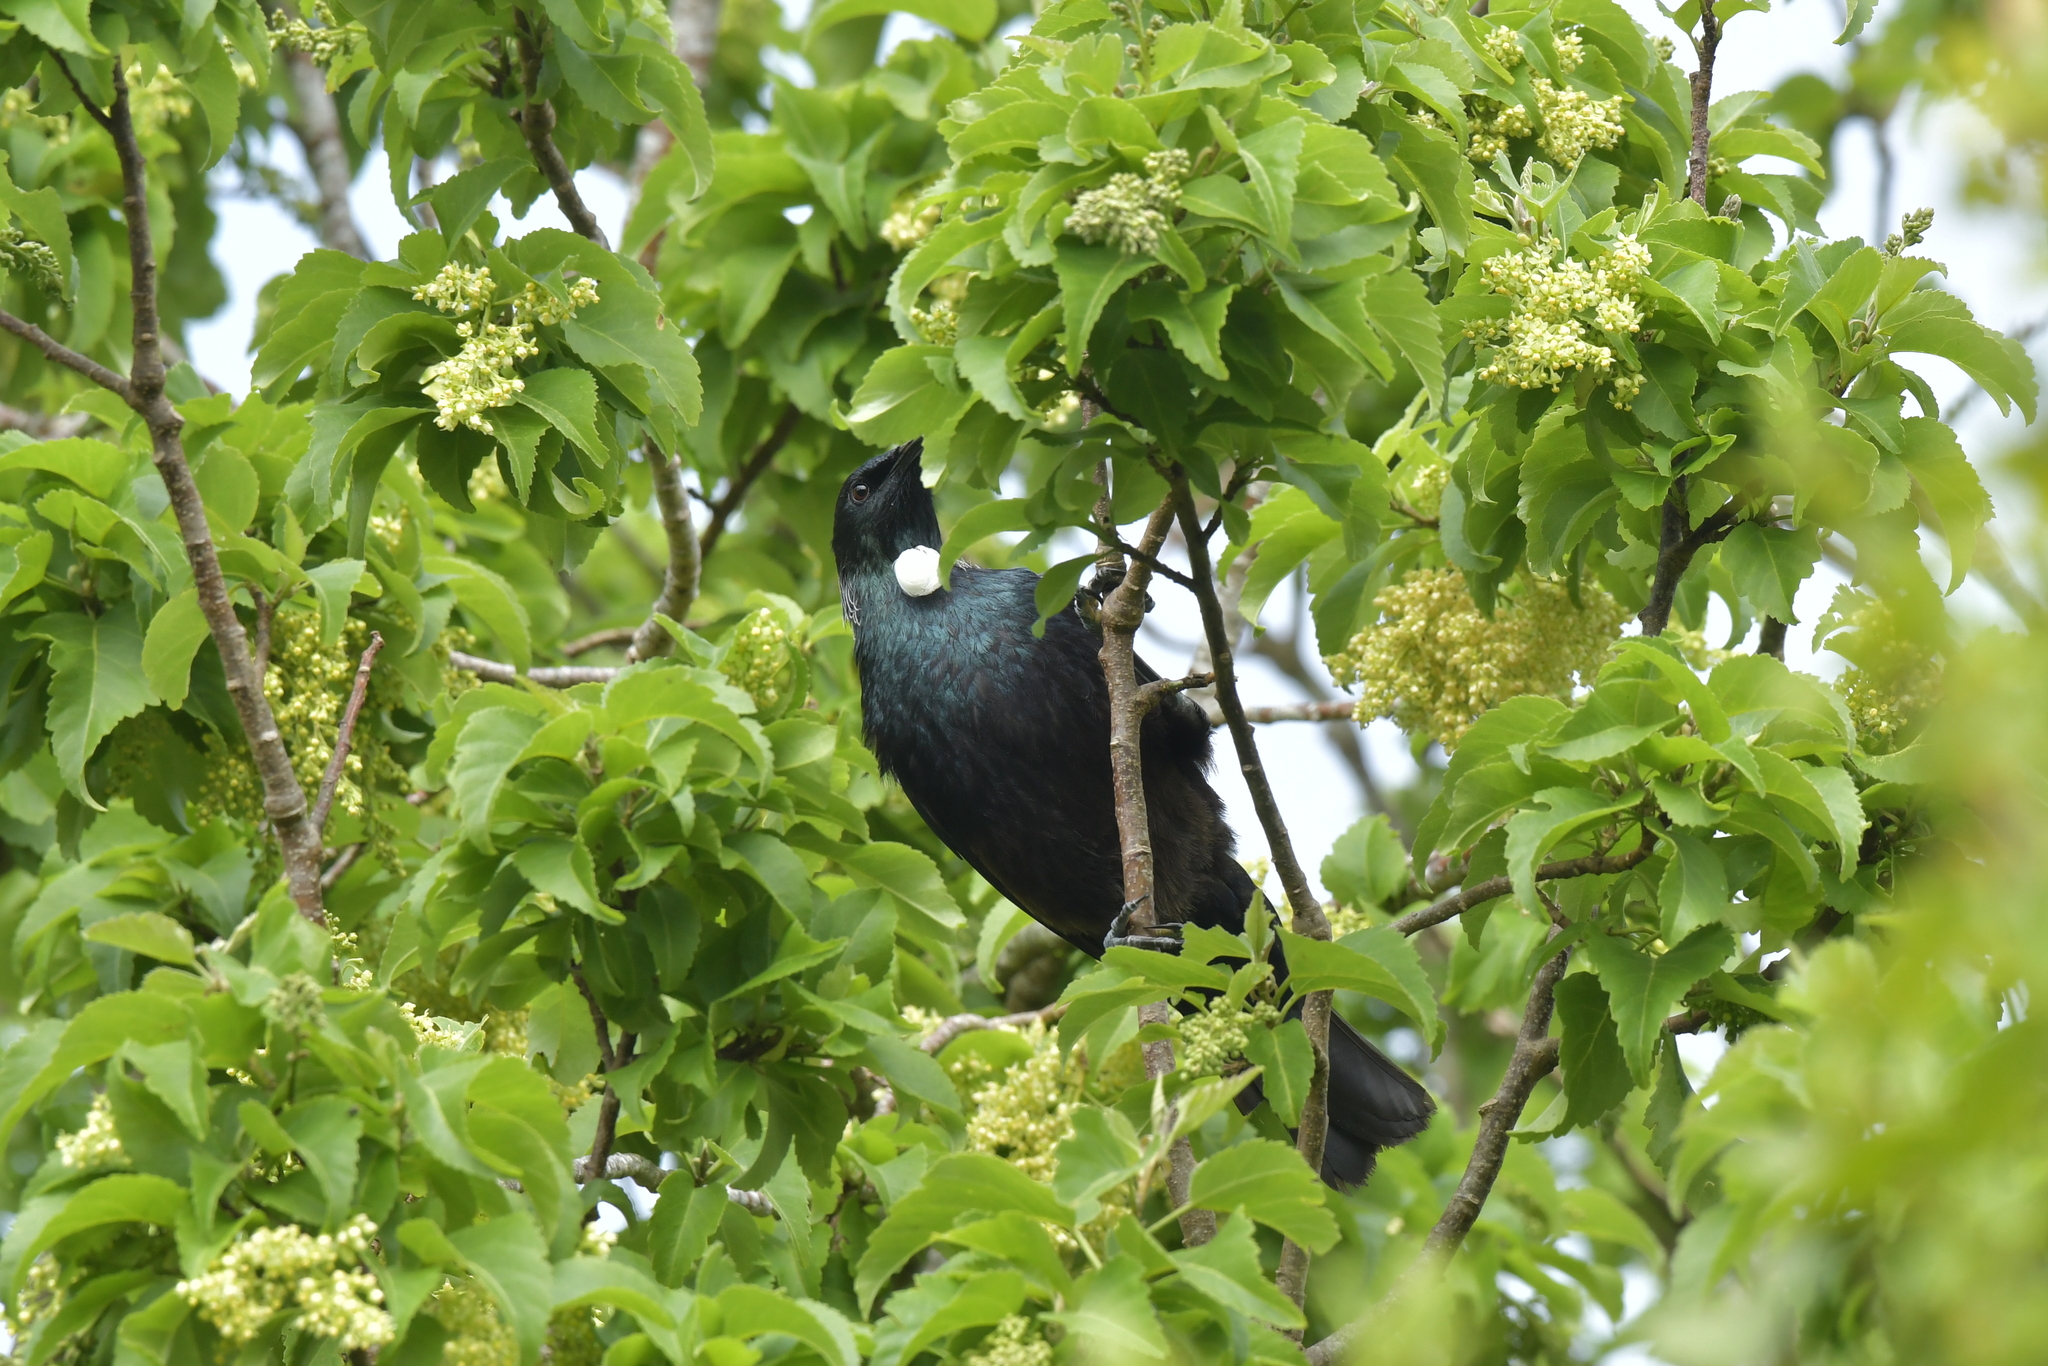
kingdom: Animalia
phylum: Chordata
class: Aves
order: Passeriformes
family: Meliphagidae
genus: Prosthemadera
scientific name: Prosthemadera novaeseelandiae
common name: Tui
